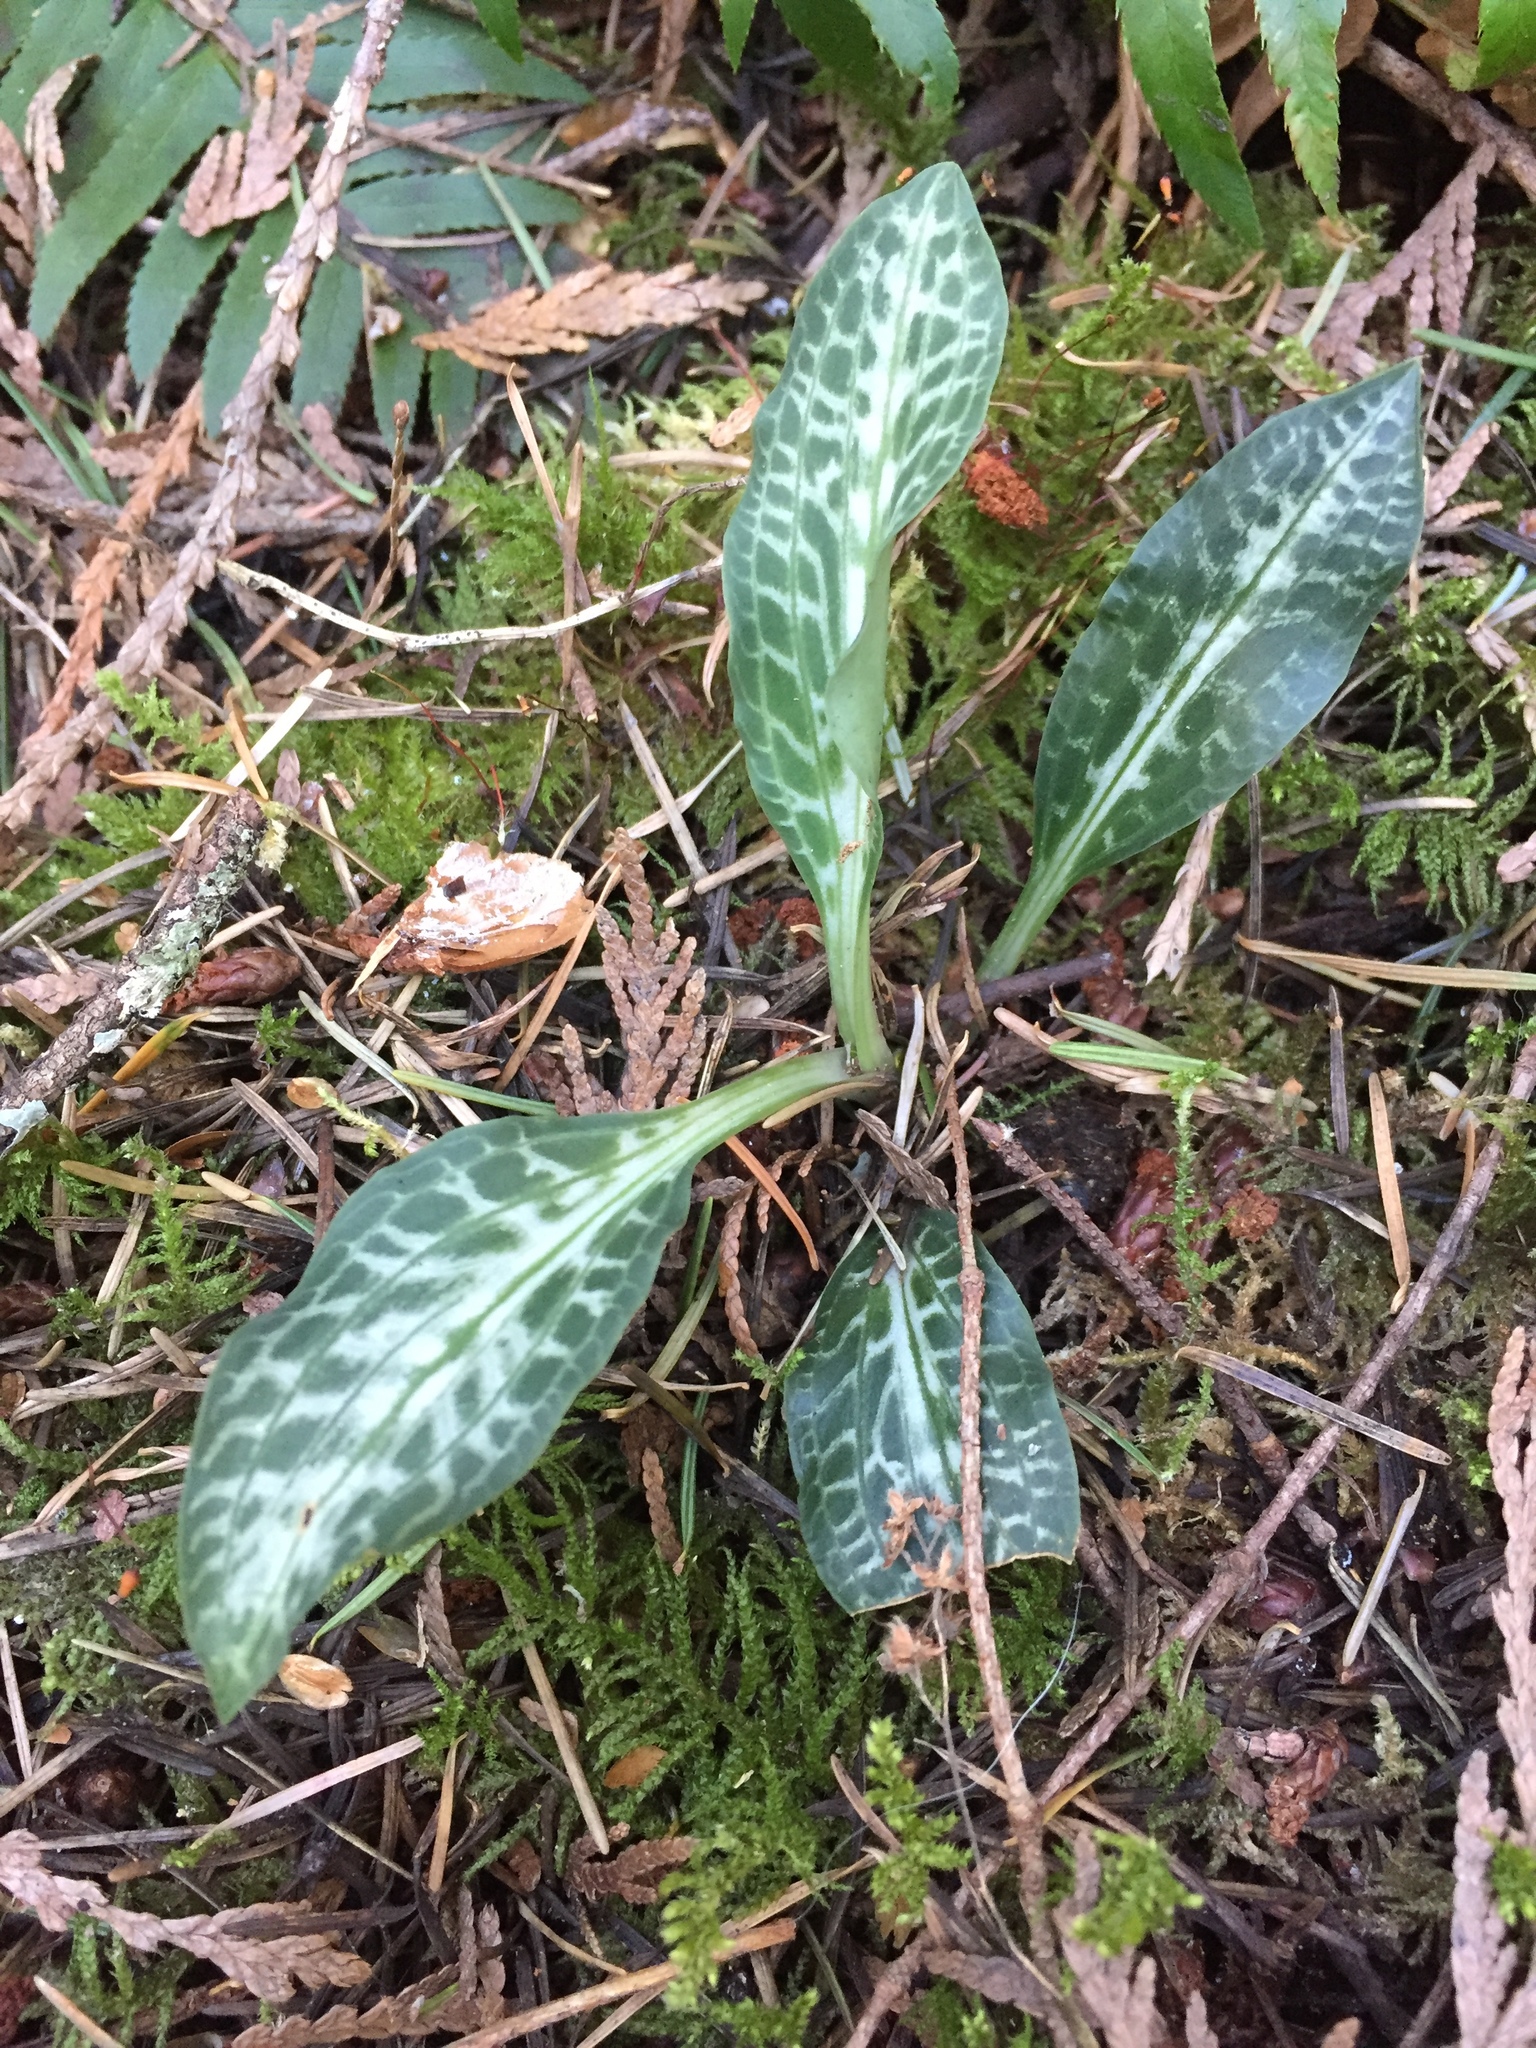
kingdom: Plantae
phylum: Tracheophyta
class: Liliopsida
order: Asparagales
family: Orchidaceae
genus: Goodyera
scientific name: Goodyera oblongifolia
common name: Giant rattlesnake-plantain
